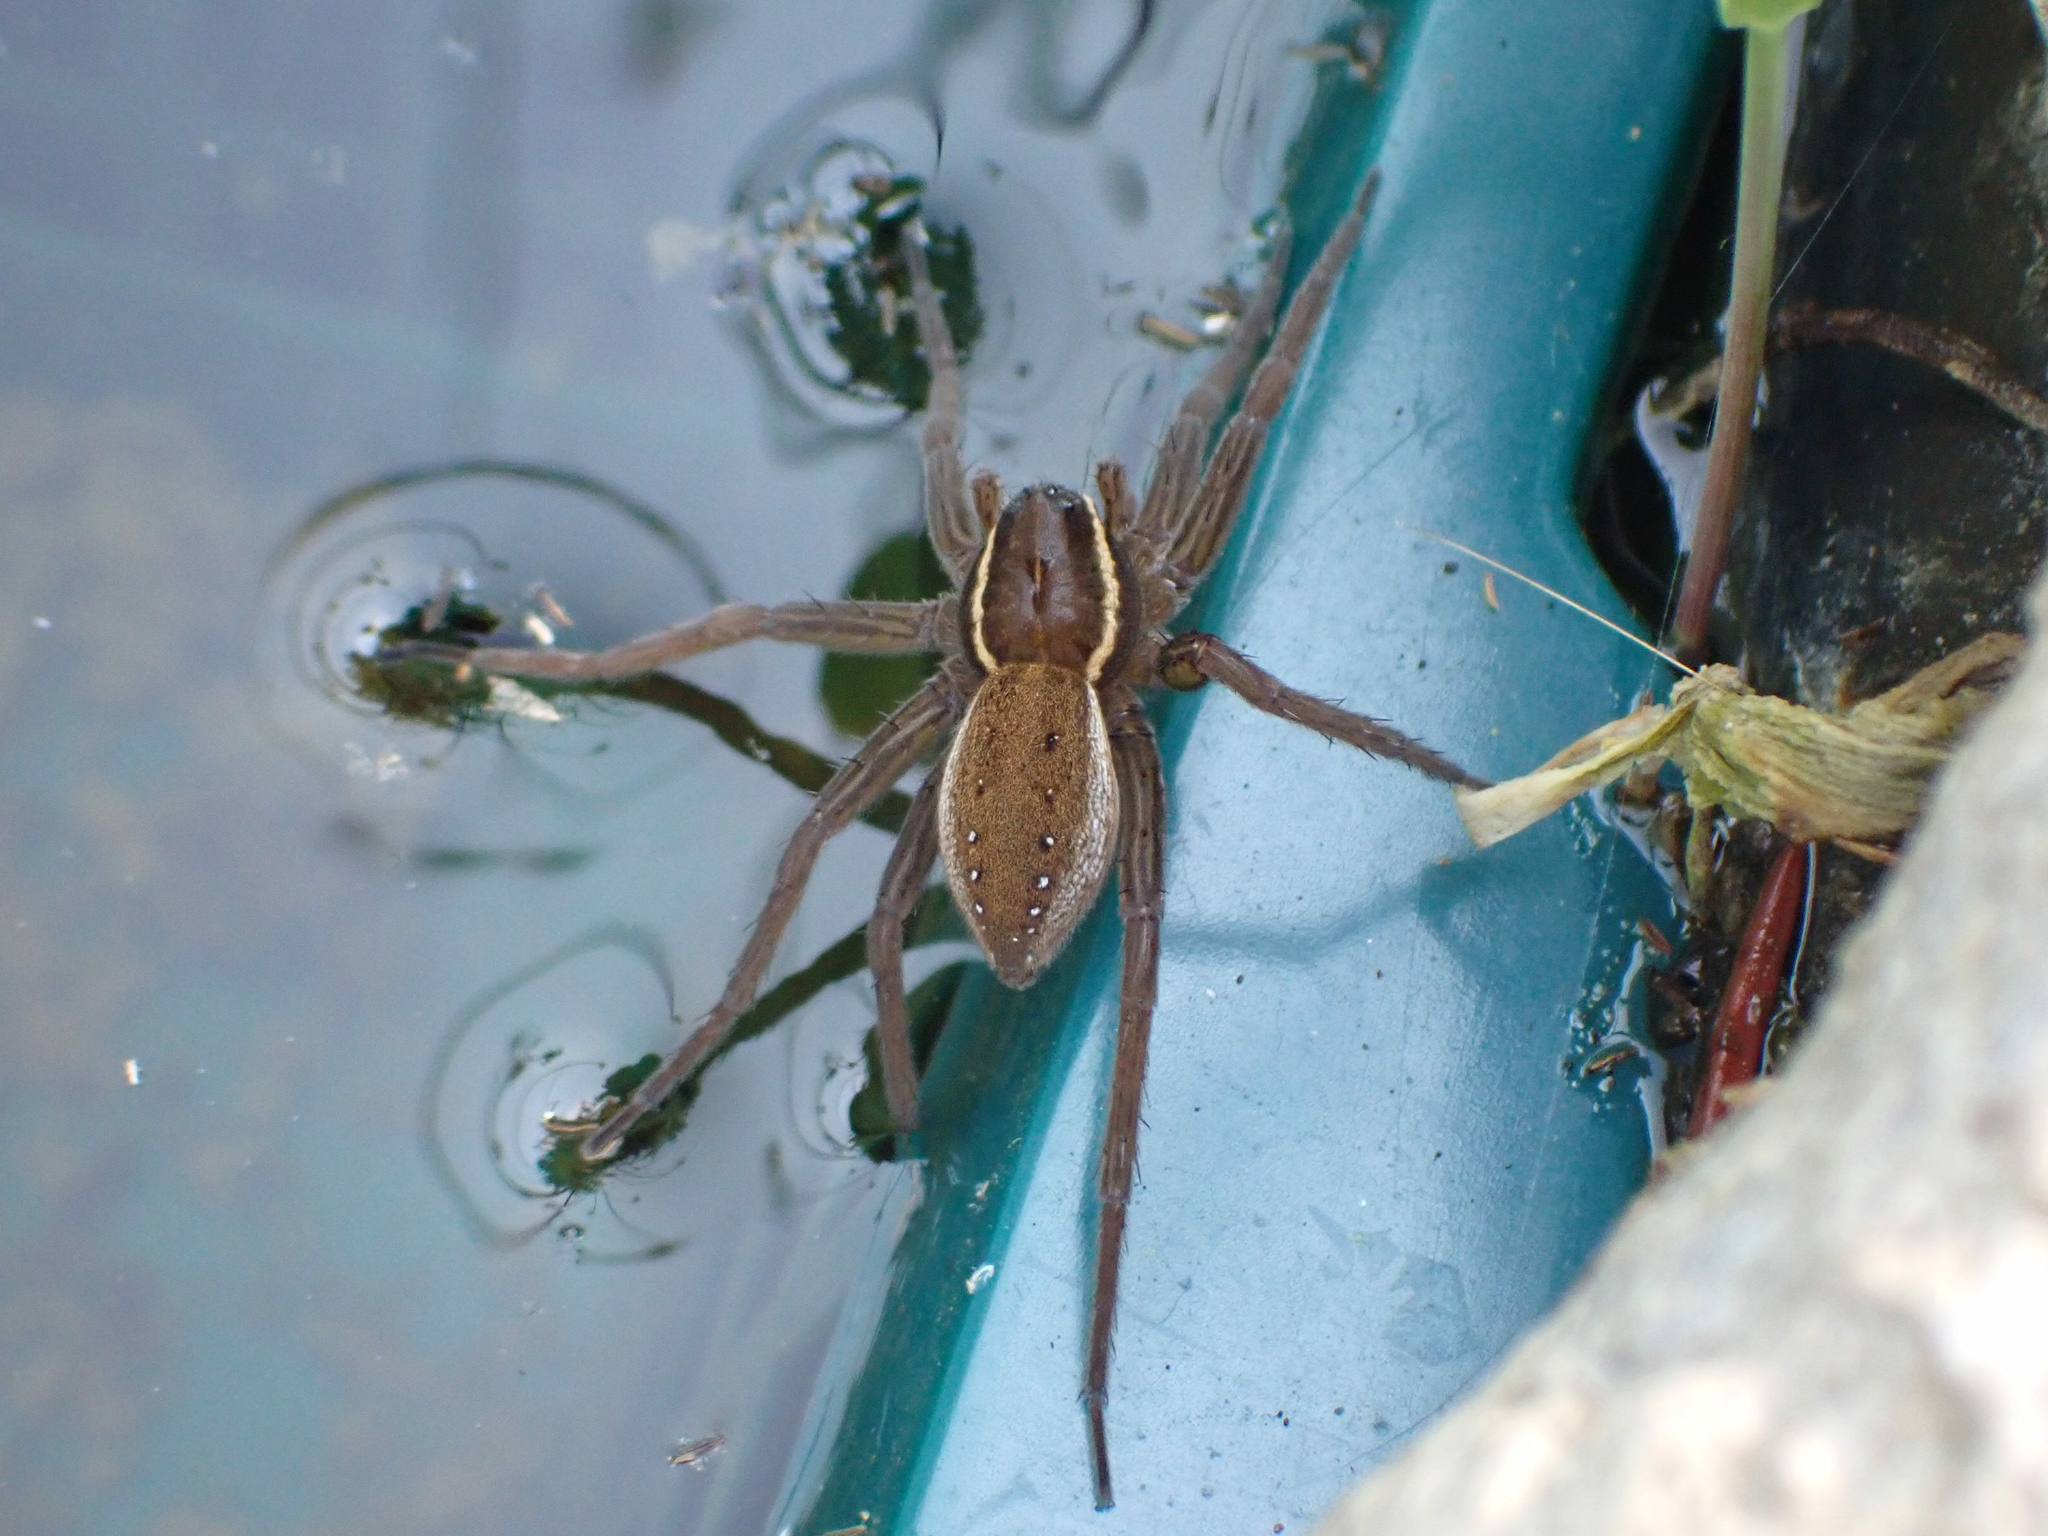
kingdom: Animalia
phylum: Arthropoda
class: Arachnida
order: Araneae
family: Pisauridae
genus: Dolomedes
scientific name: Dolomedes triton
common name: Six-spotted fishing spider
